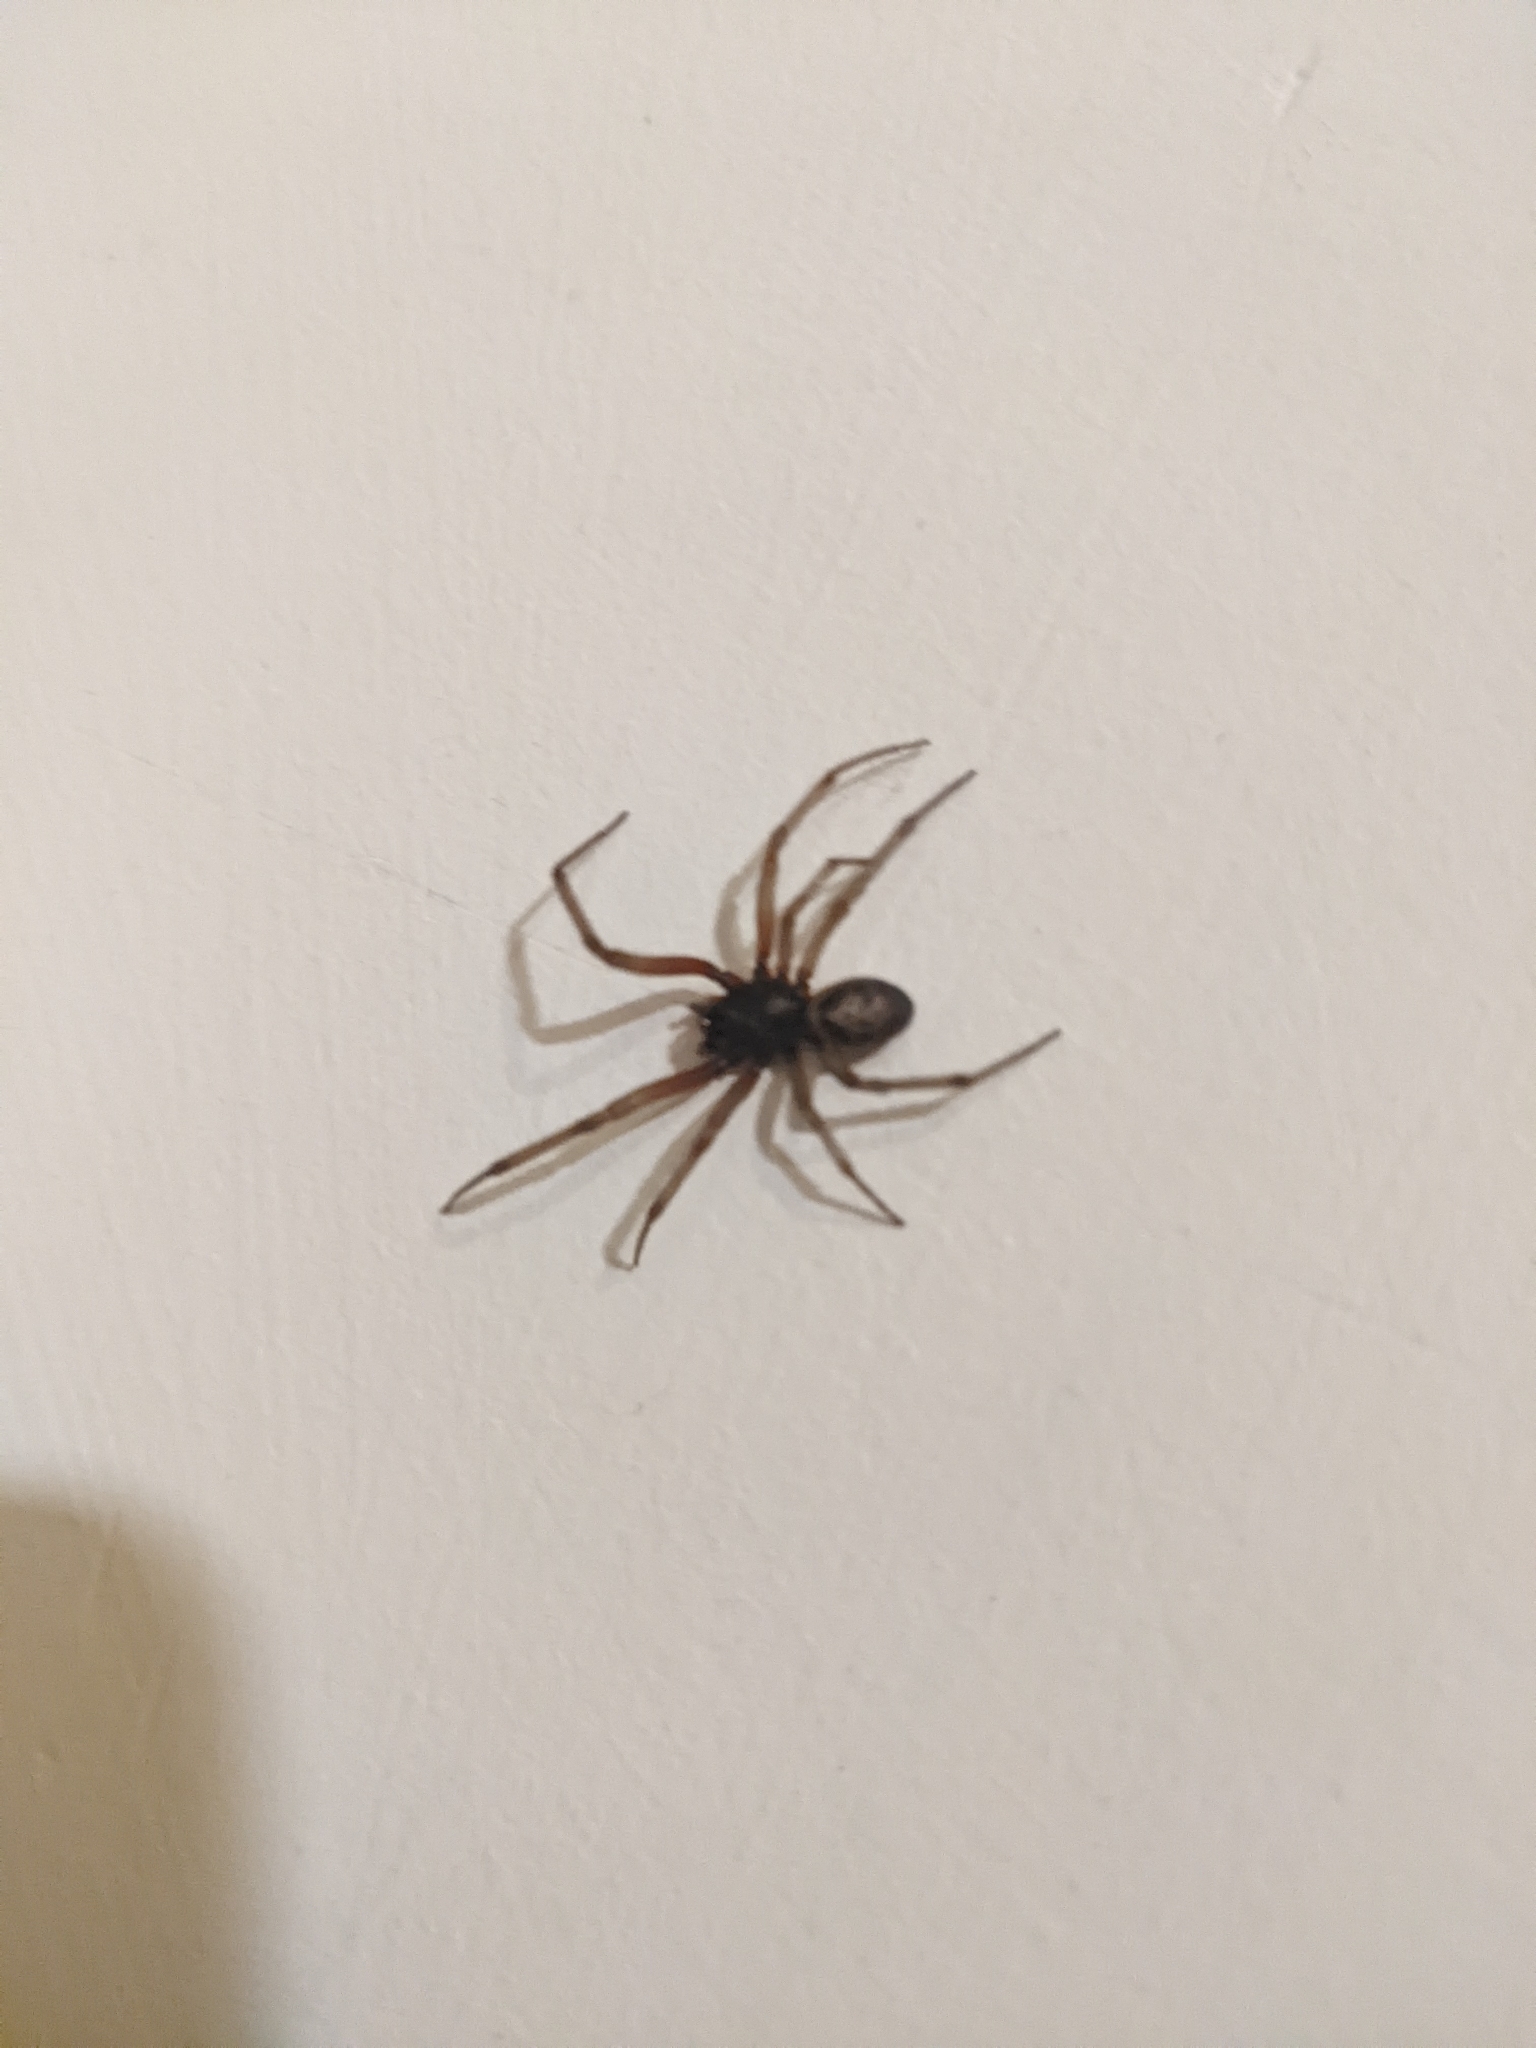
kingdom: Animalia
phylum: Arthropoda
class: Arachnida
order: Araneae
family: Theridiidae
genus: Steatoda
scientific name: Steatoda nobilis
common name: Cobweb weaver
